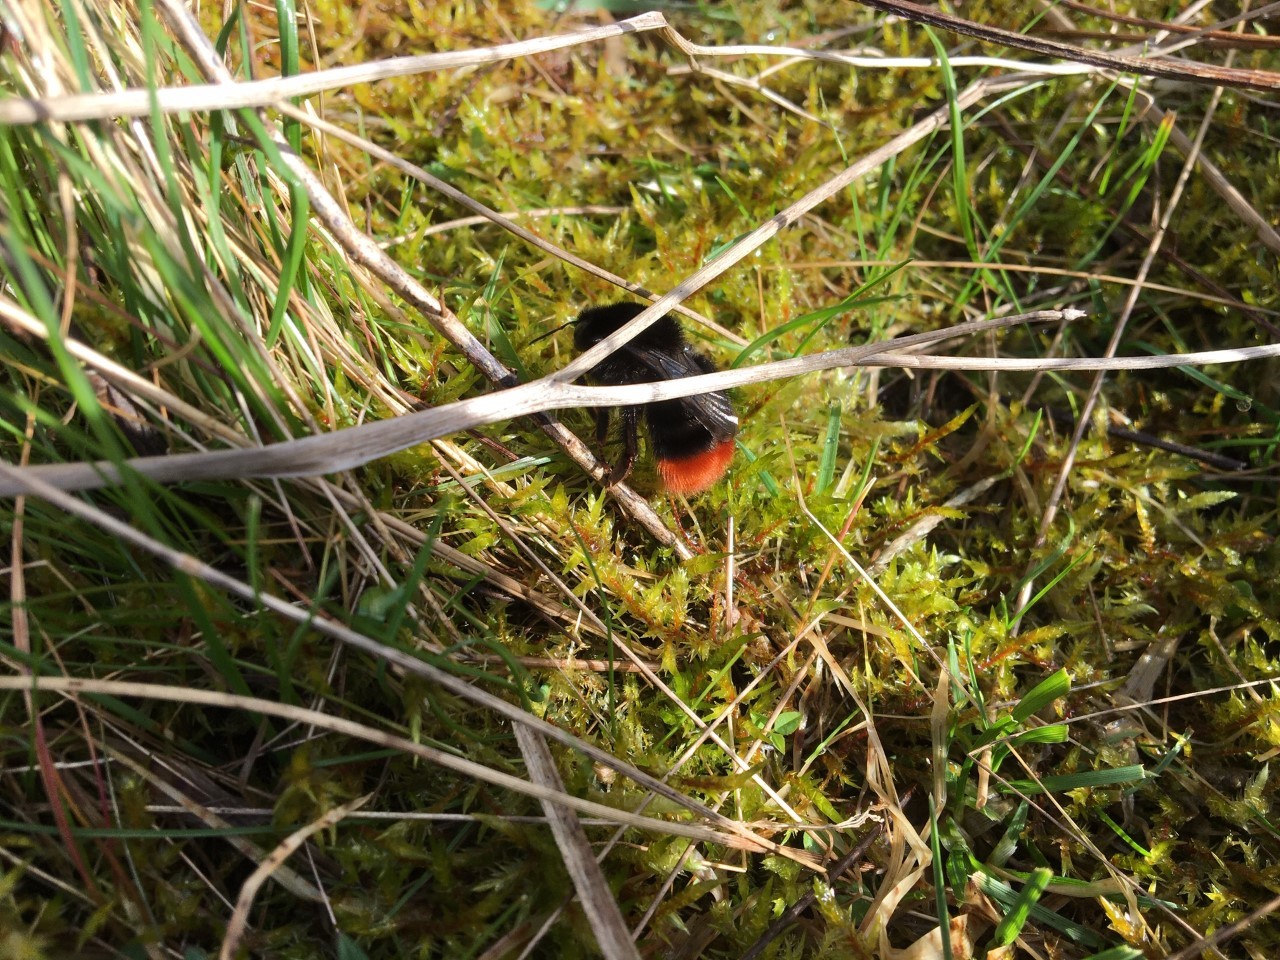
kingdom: Animalia
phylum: Arthropoda
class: Insecta
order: Hymenoptera
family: Apidae
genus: Bombus
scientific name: Bombus lapidarius
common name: Large red-tailed humble-bee
